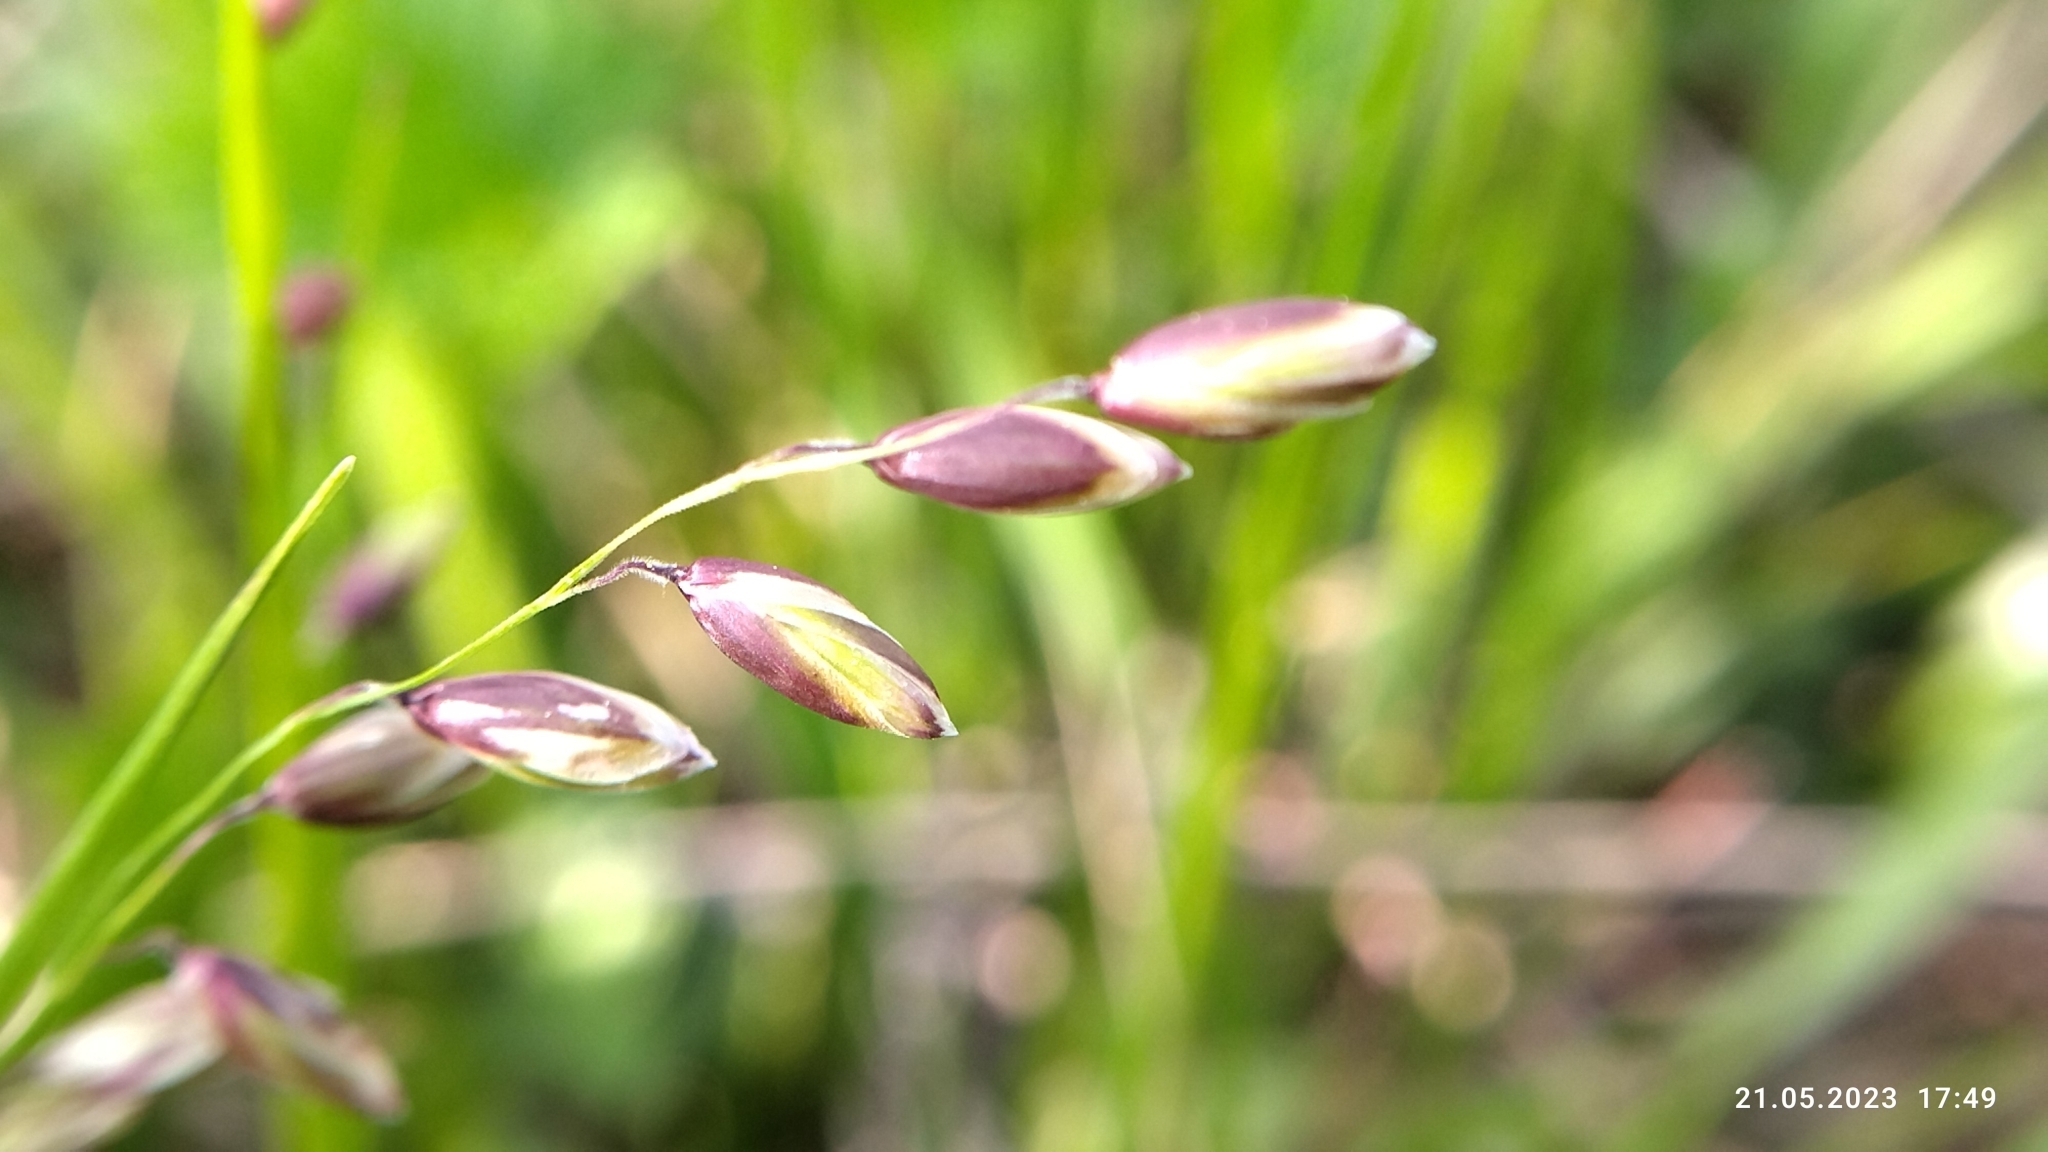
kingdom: Plantae
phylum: Tracheophyta
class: Liliopsida
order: Poales
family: Poaceae
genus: Melica
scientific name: Melica nutans
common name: Mountain melick
